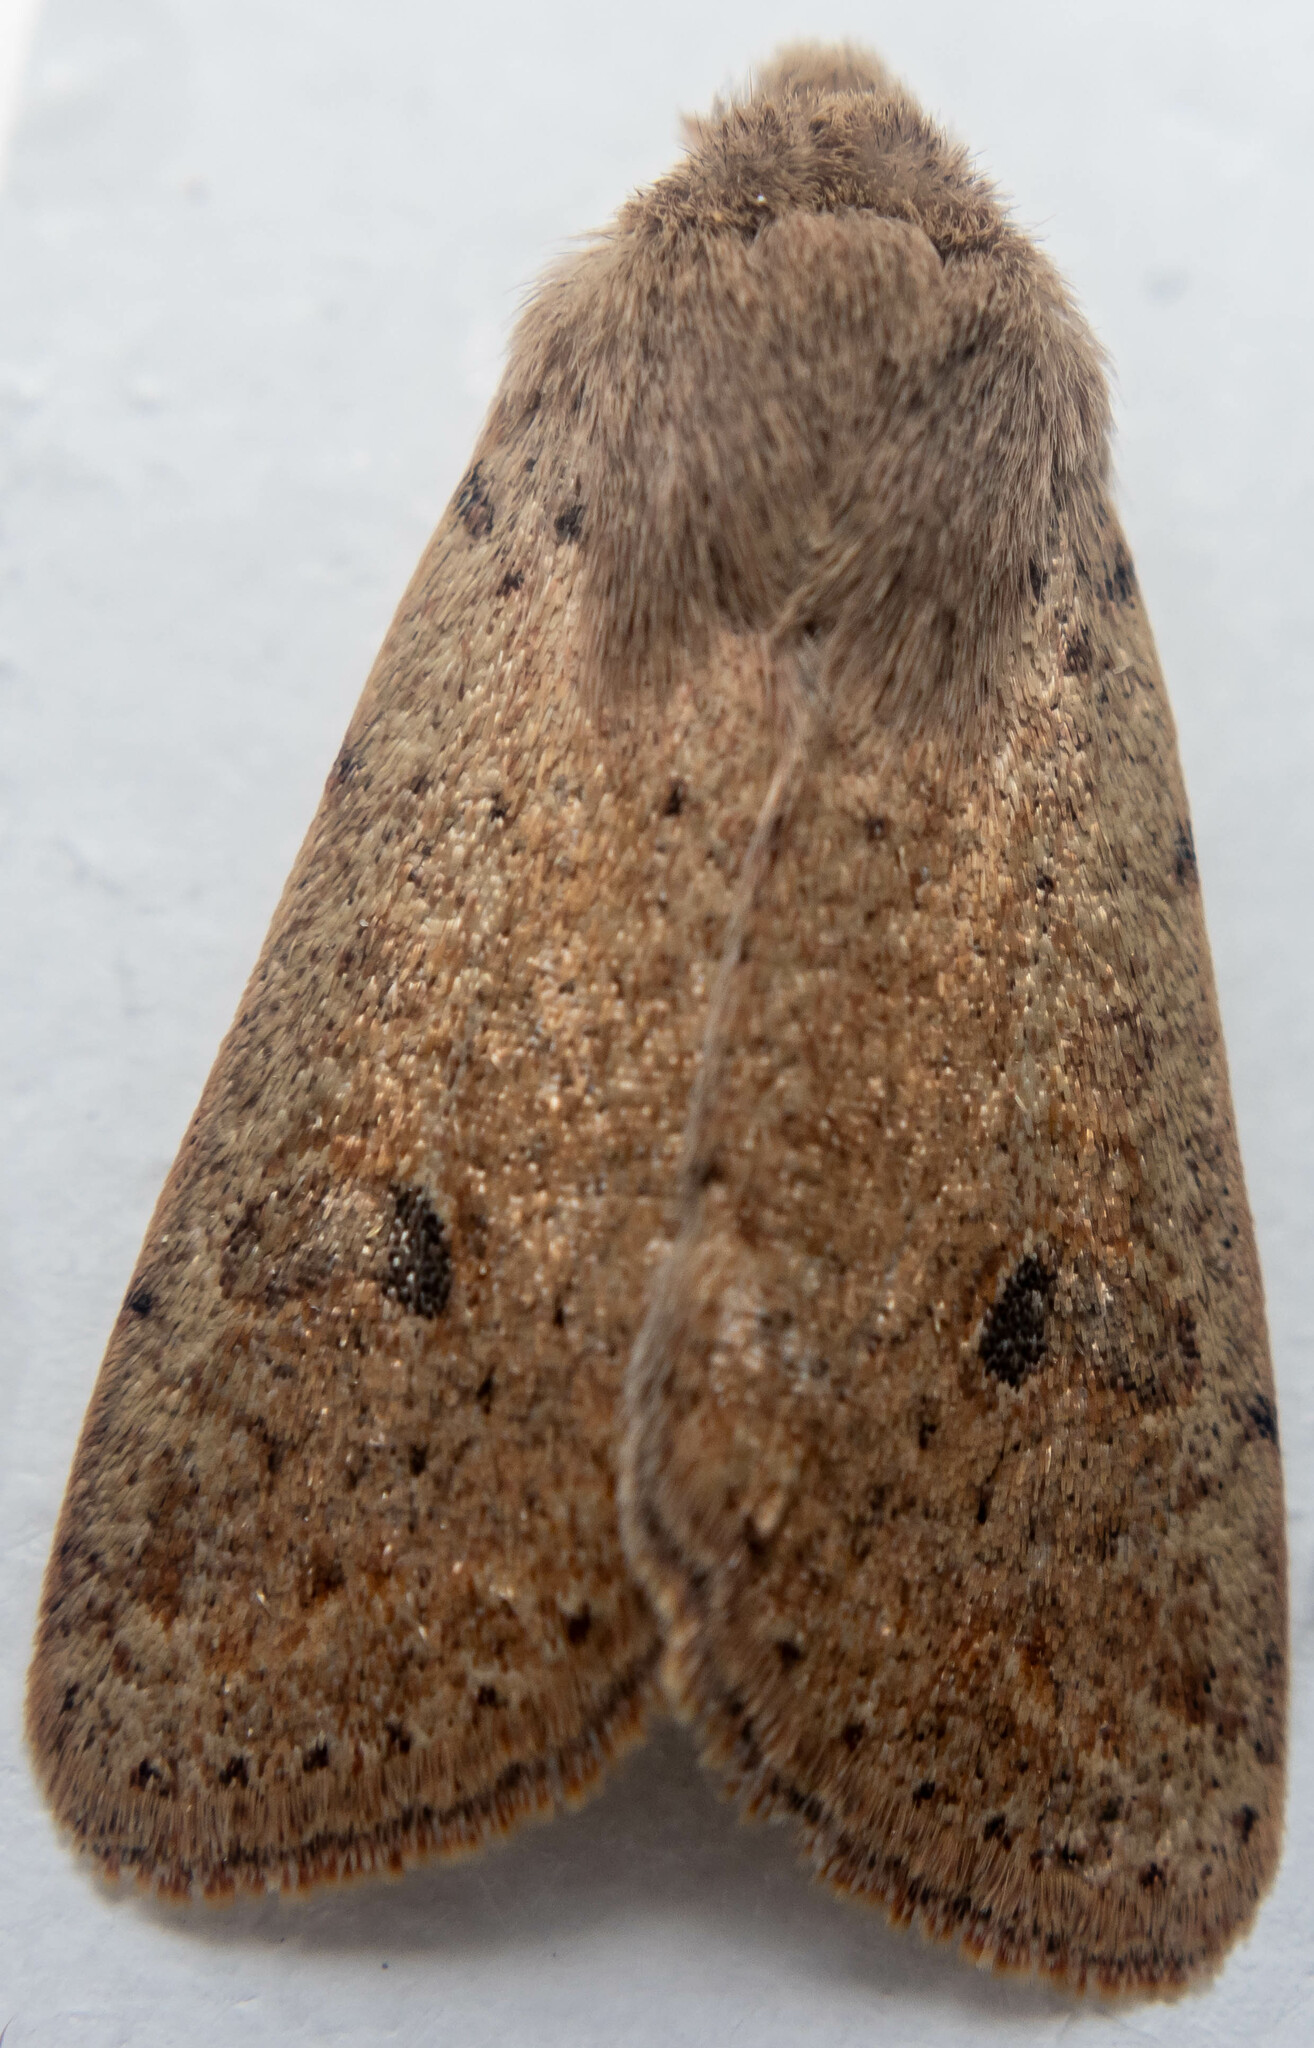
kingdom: Animalia
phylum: Arthropoda
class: Insecta
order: Lepidoptera
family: Noctuidae
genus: Orthosia
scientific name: Orthosia cruda
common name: Small quaker
